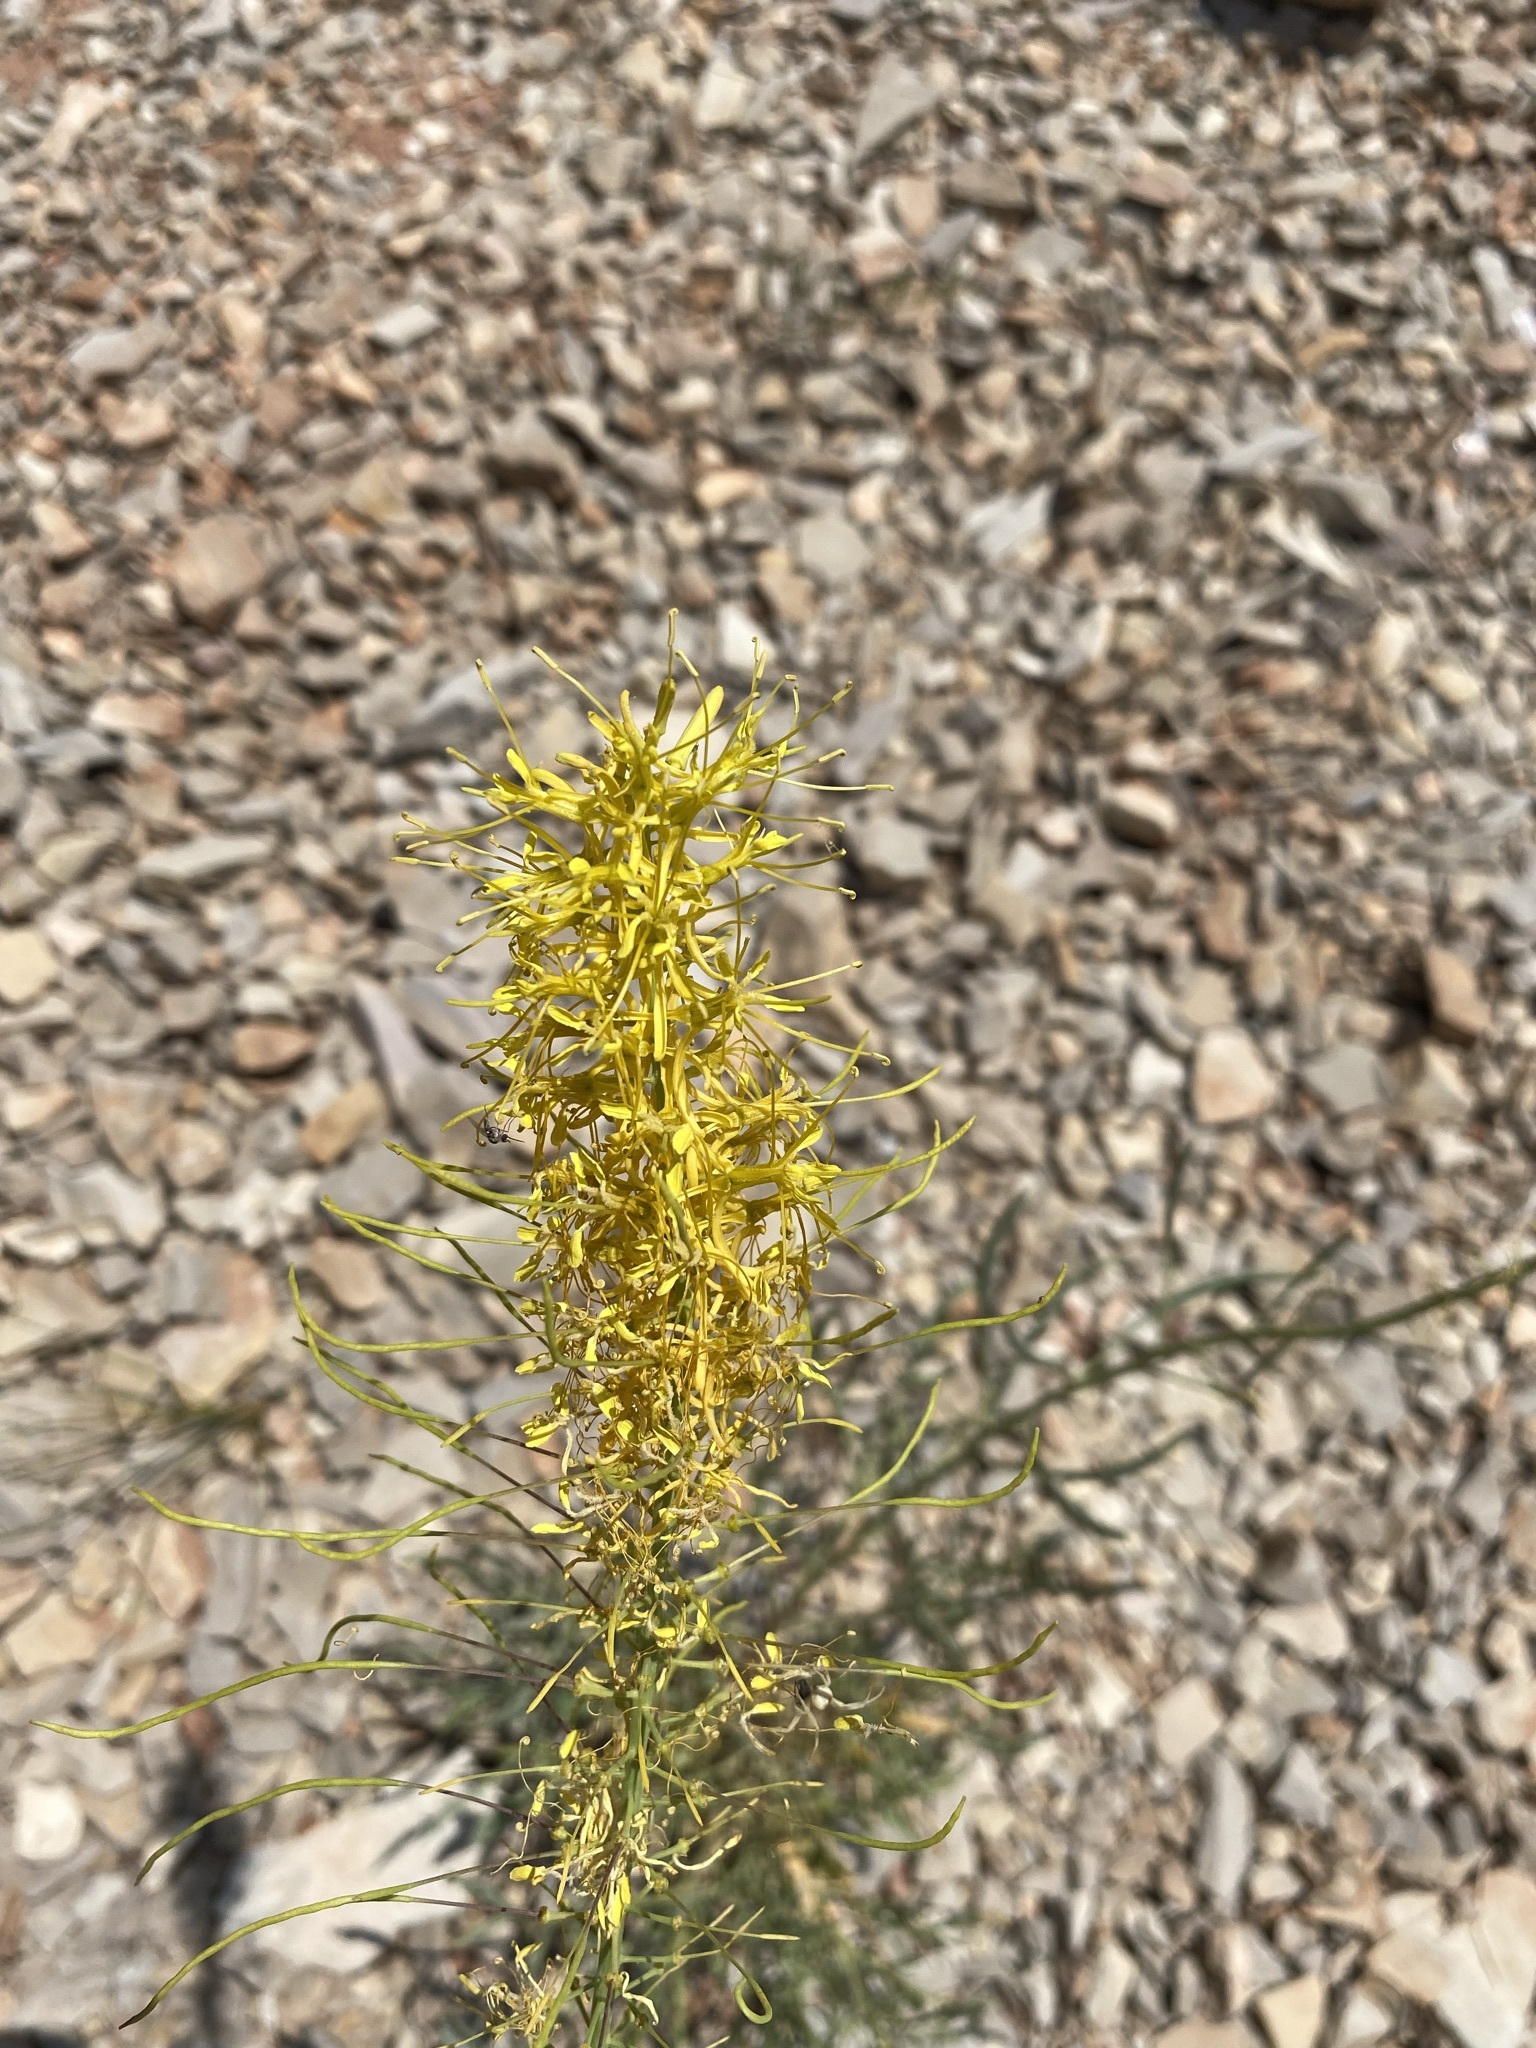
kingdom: Plantae
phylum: Tracheophyta
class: Magnoliopsida
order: Brassicales
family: Brassicaceae
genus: Stanleya
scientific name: Stanleya pinnata
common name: Prince's-plume
